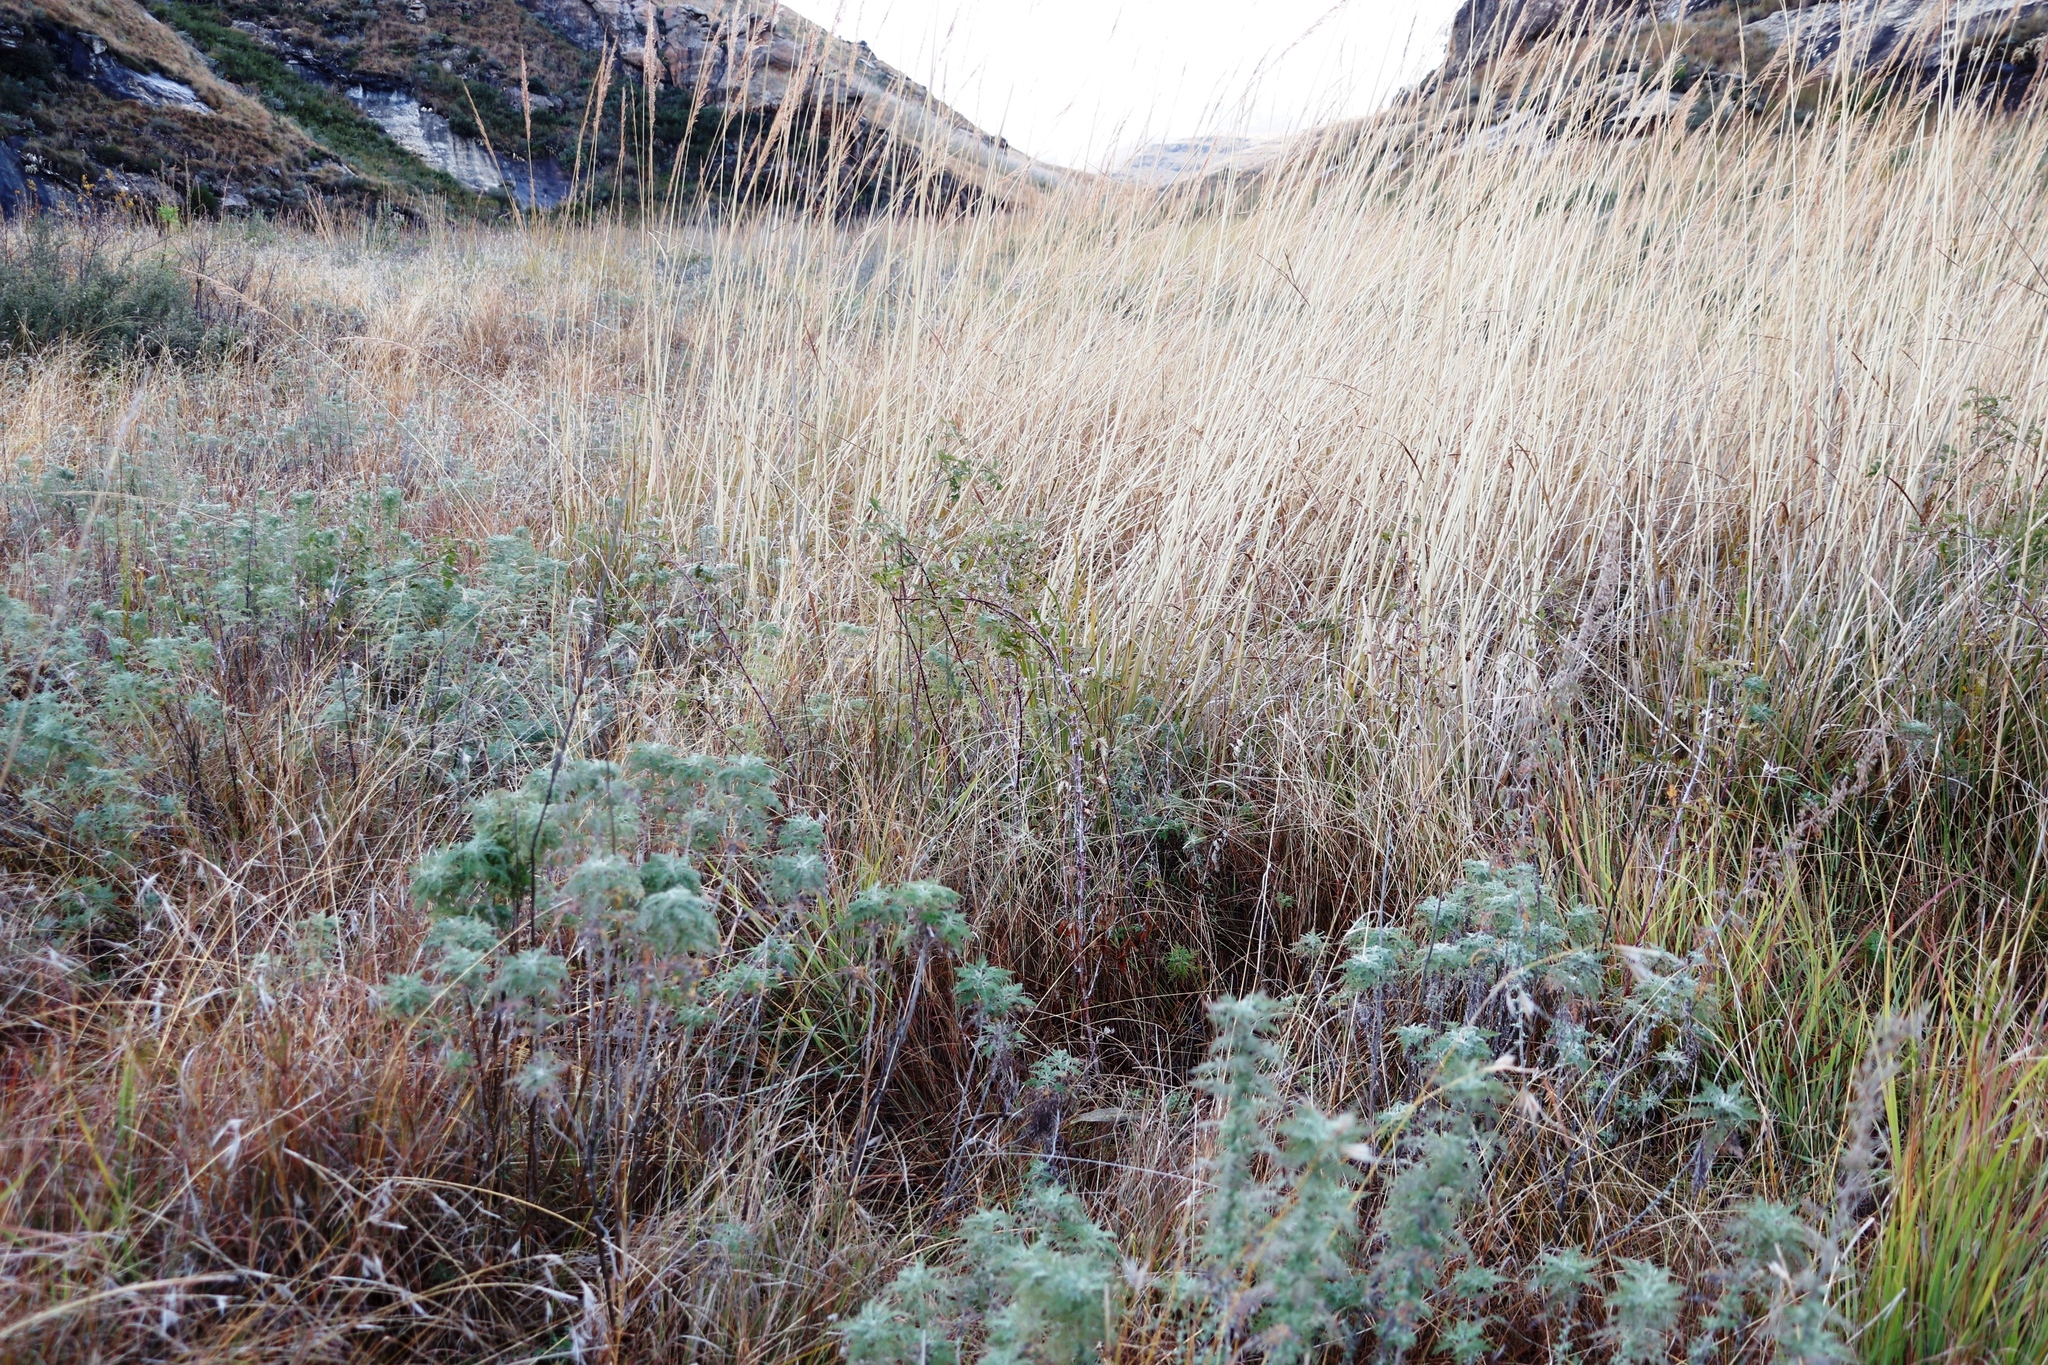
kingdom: Plantae
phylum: Tracheophyta
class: Magnoliopsida
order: Rosales
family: Rosaceae
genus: Rubus
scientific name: Rubus ludwigii
